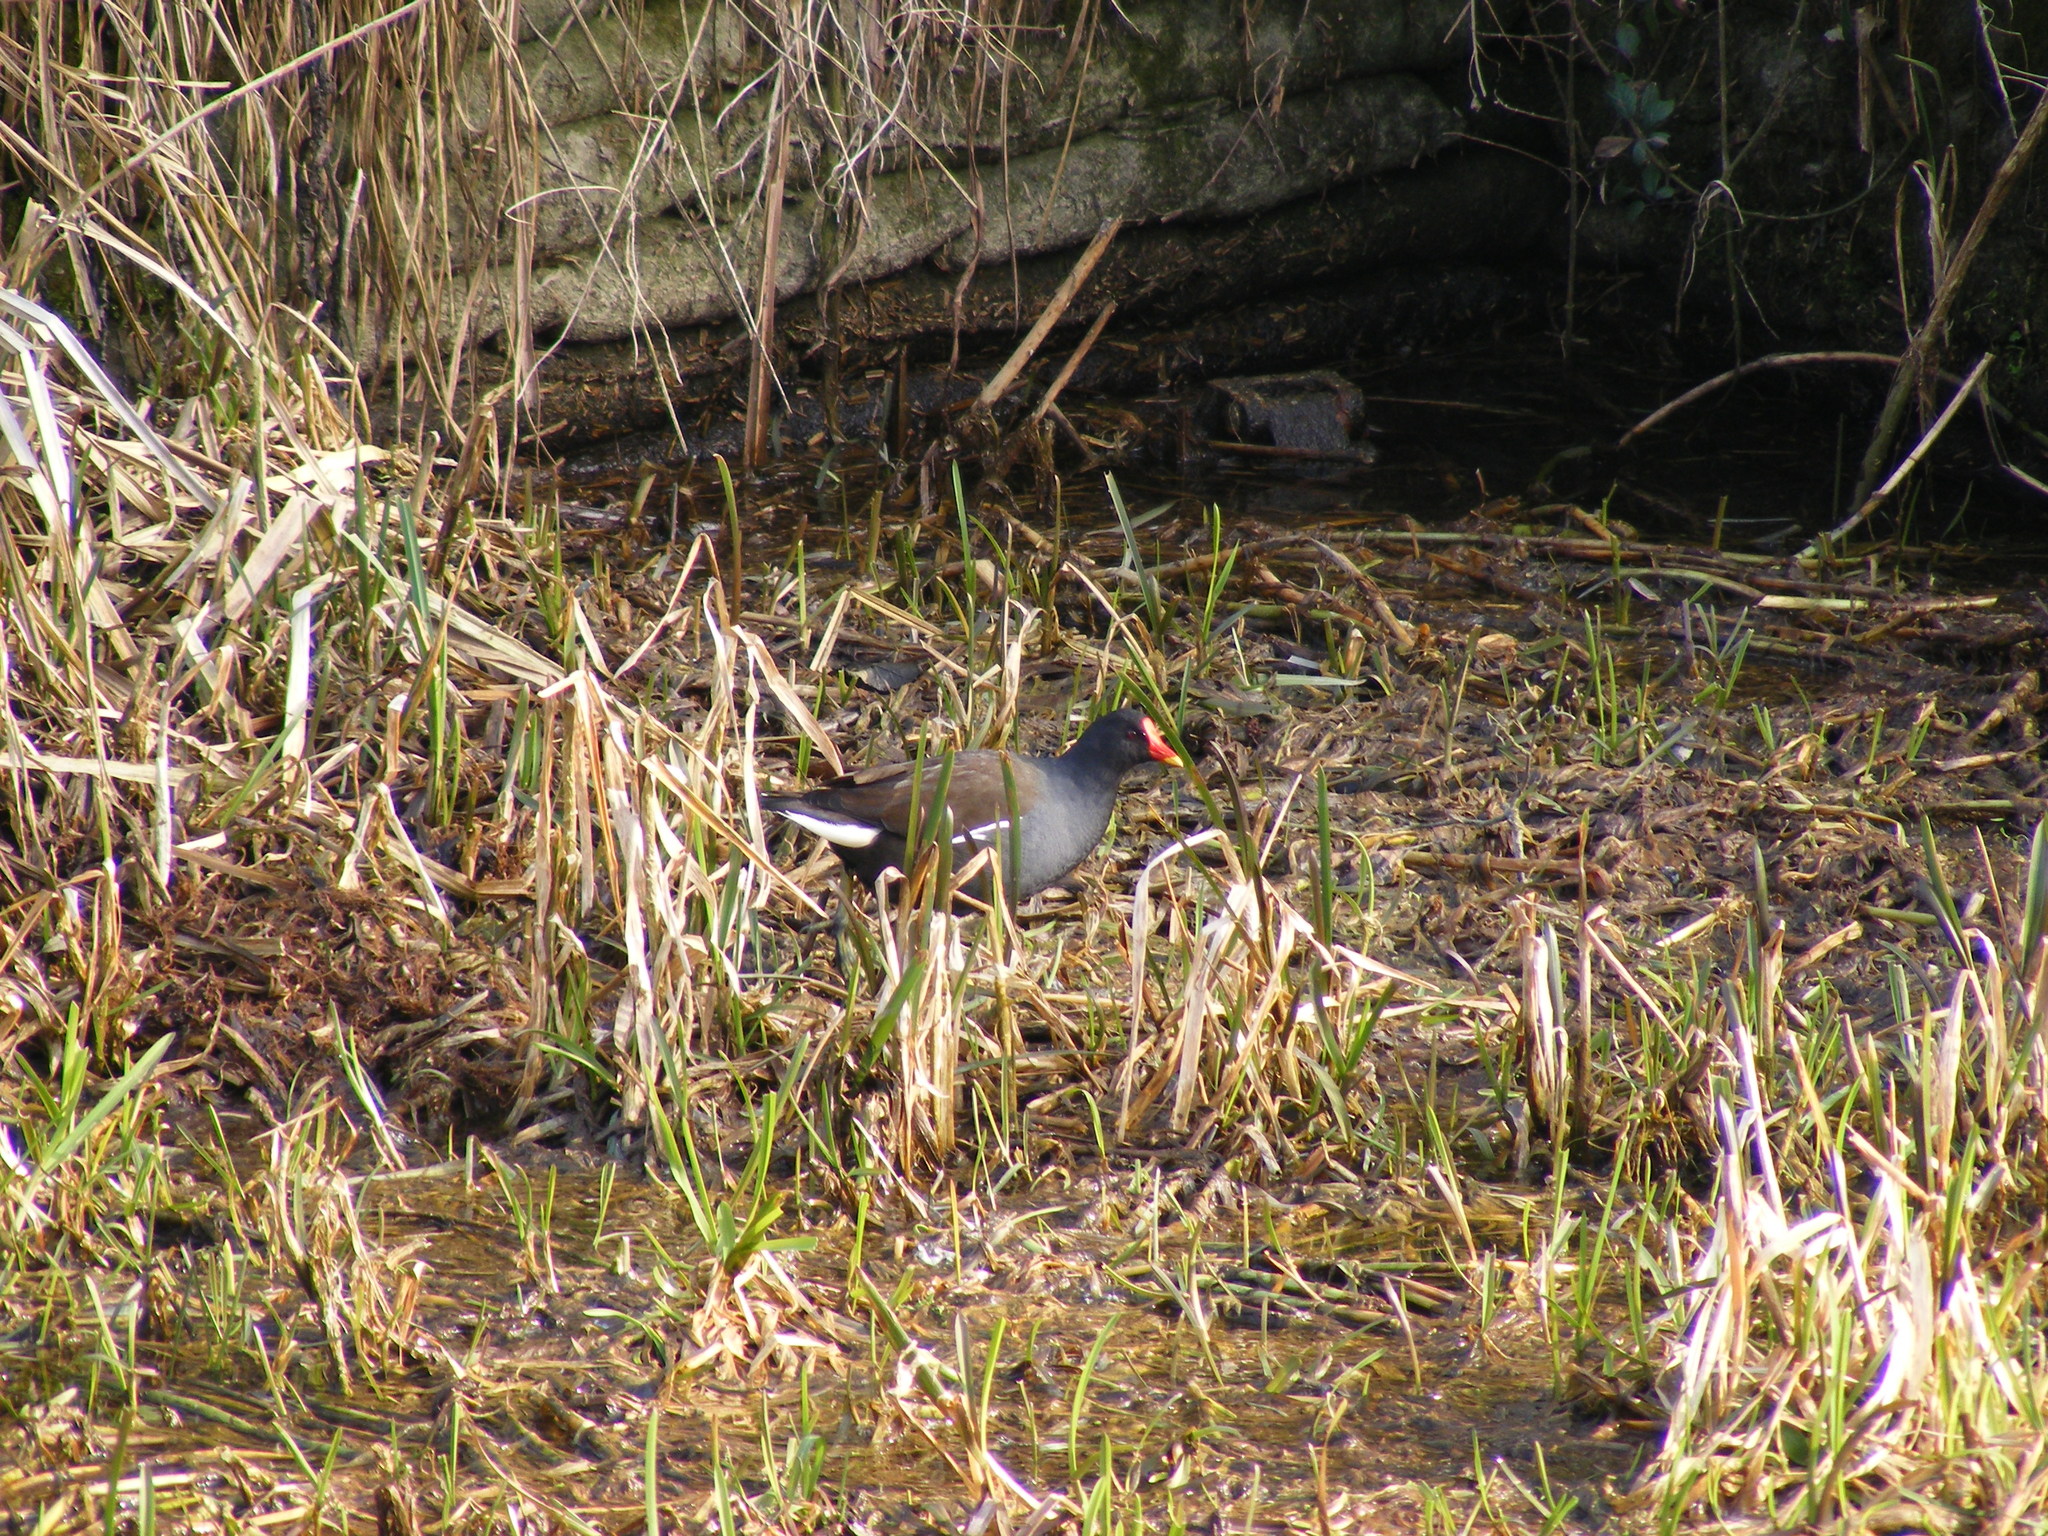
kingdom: Animalia
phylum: Chordata
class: Aves
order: Gruiformes
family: Rallidae
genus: Gallinula
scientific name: Gallinula chloropus
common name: Common moorhen
